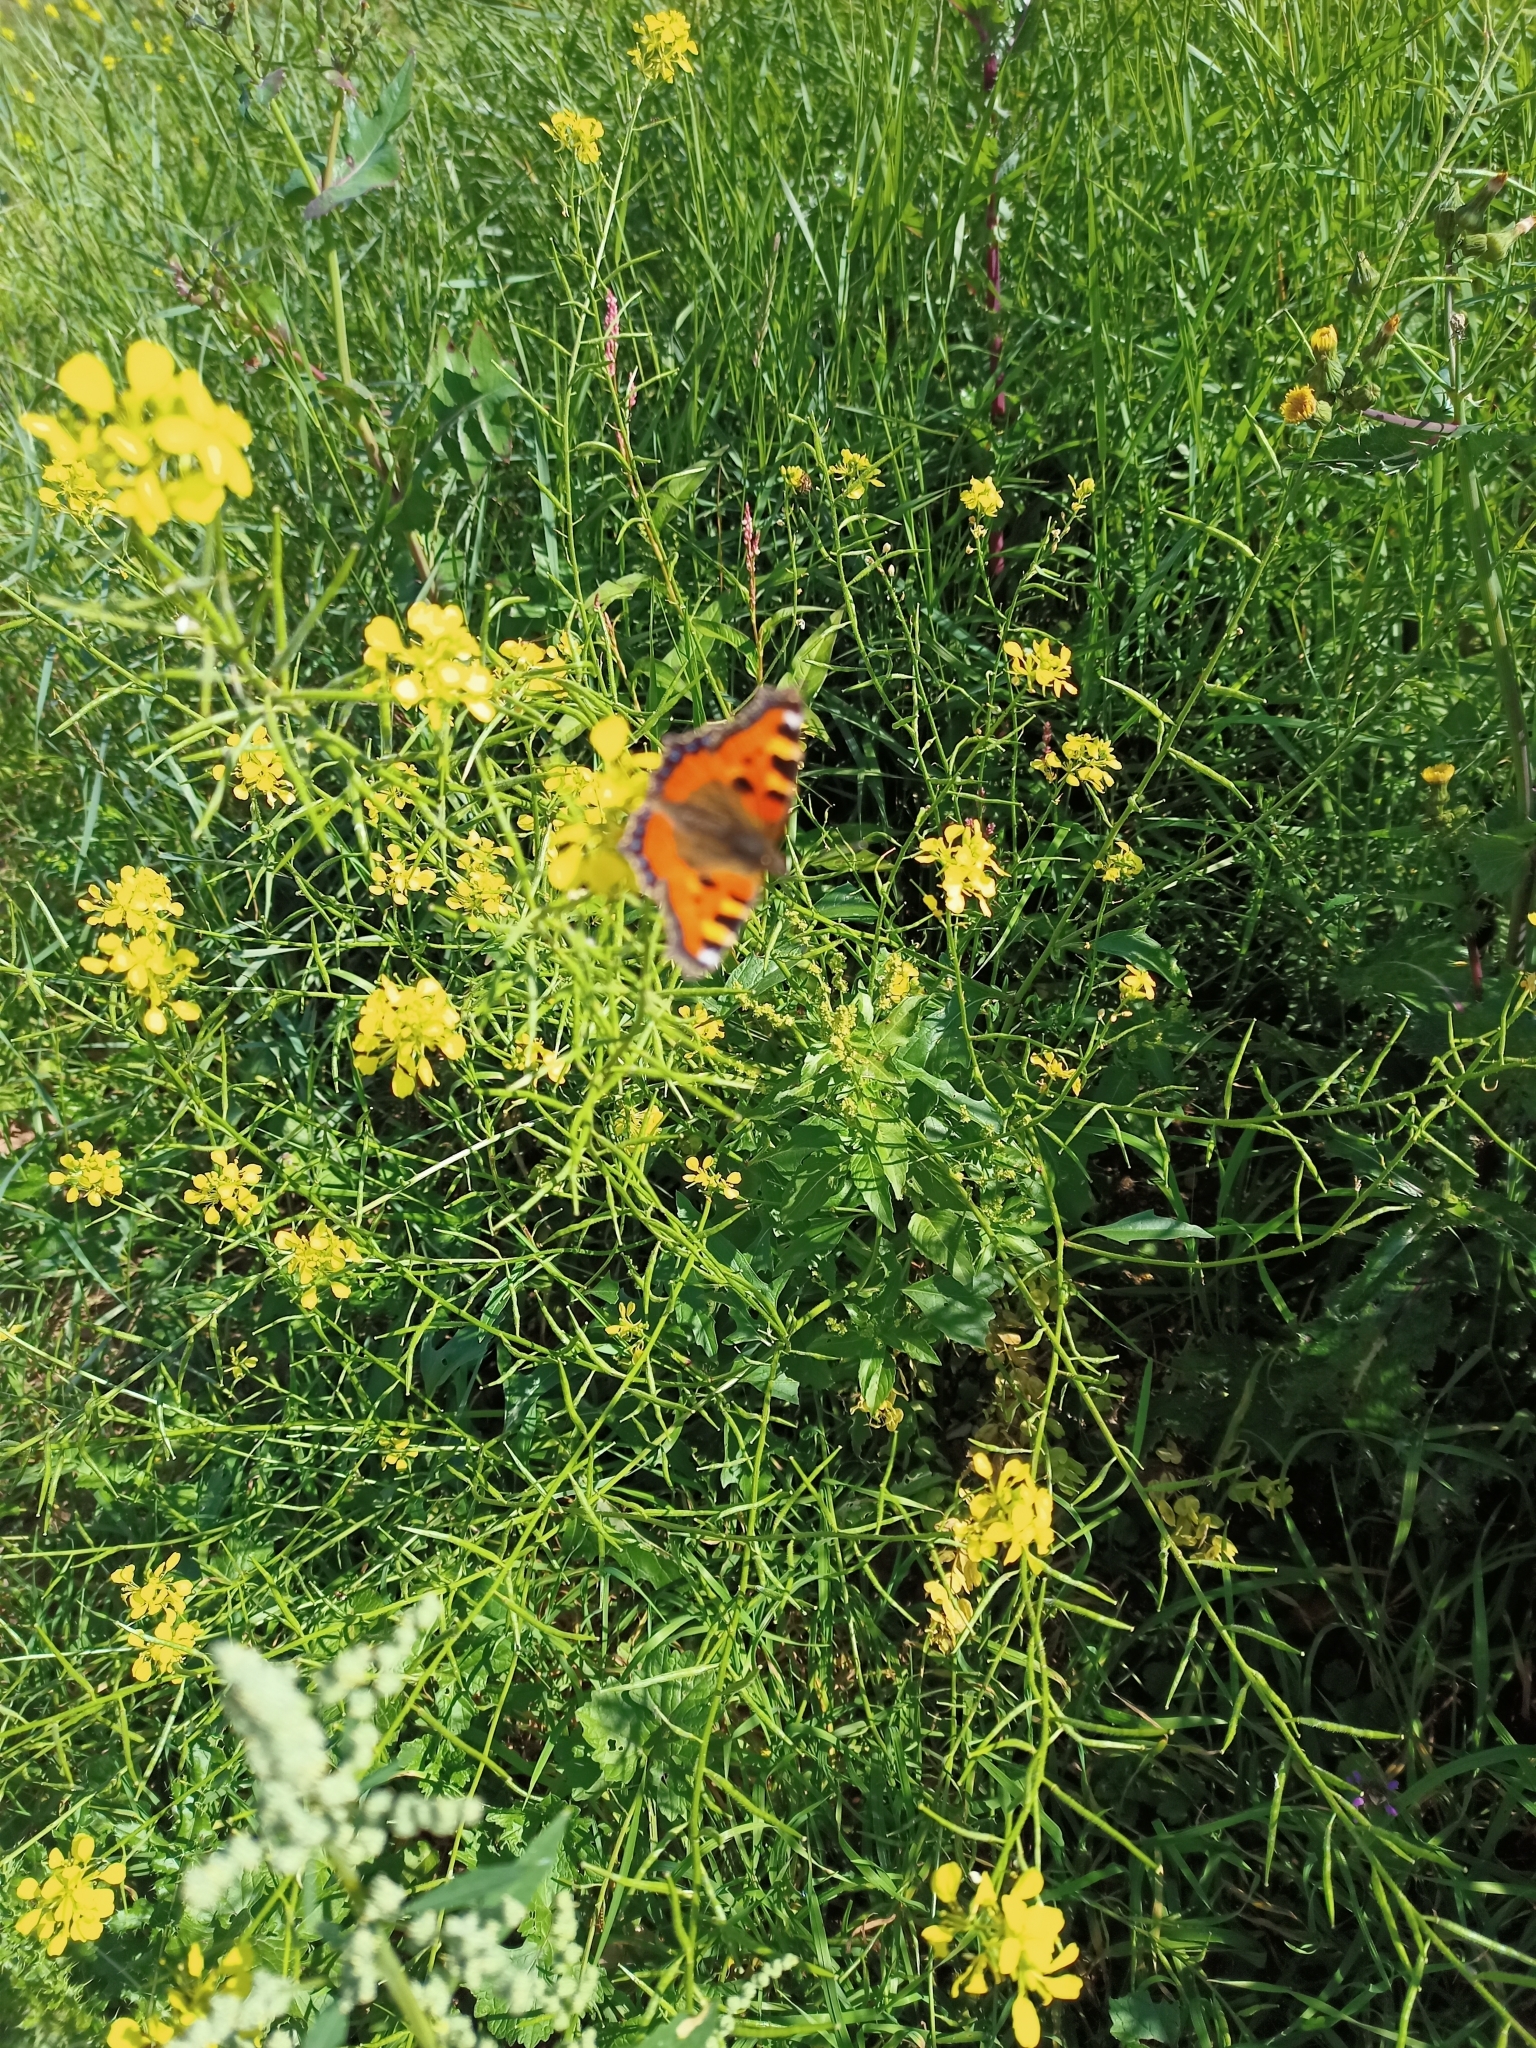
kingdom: Animalia
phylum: Arthropoda
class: Insecta
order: Lepidoptera
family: Nymphalidae
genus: Aglais
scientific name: Aglais urticae
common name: Small tortoiseshell
